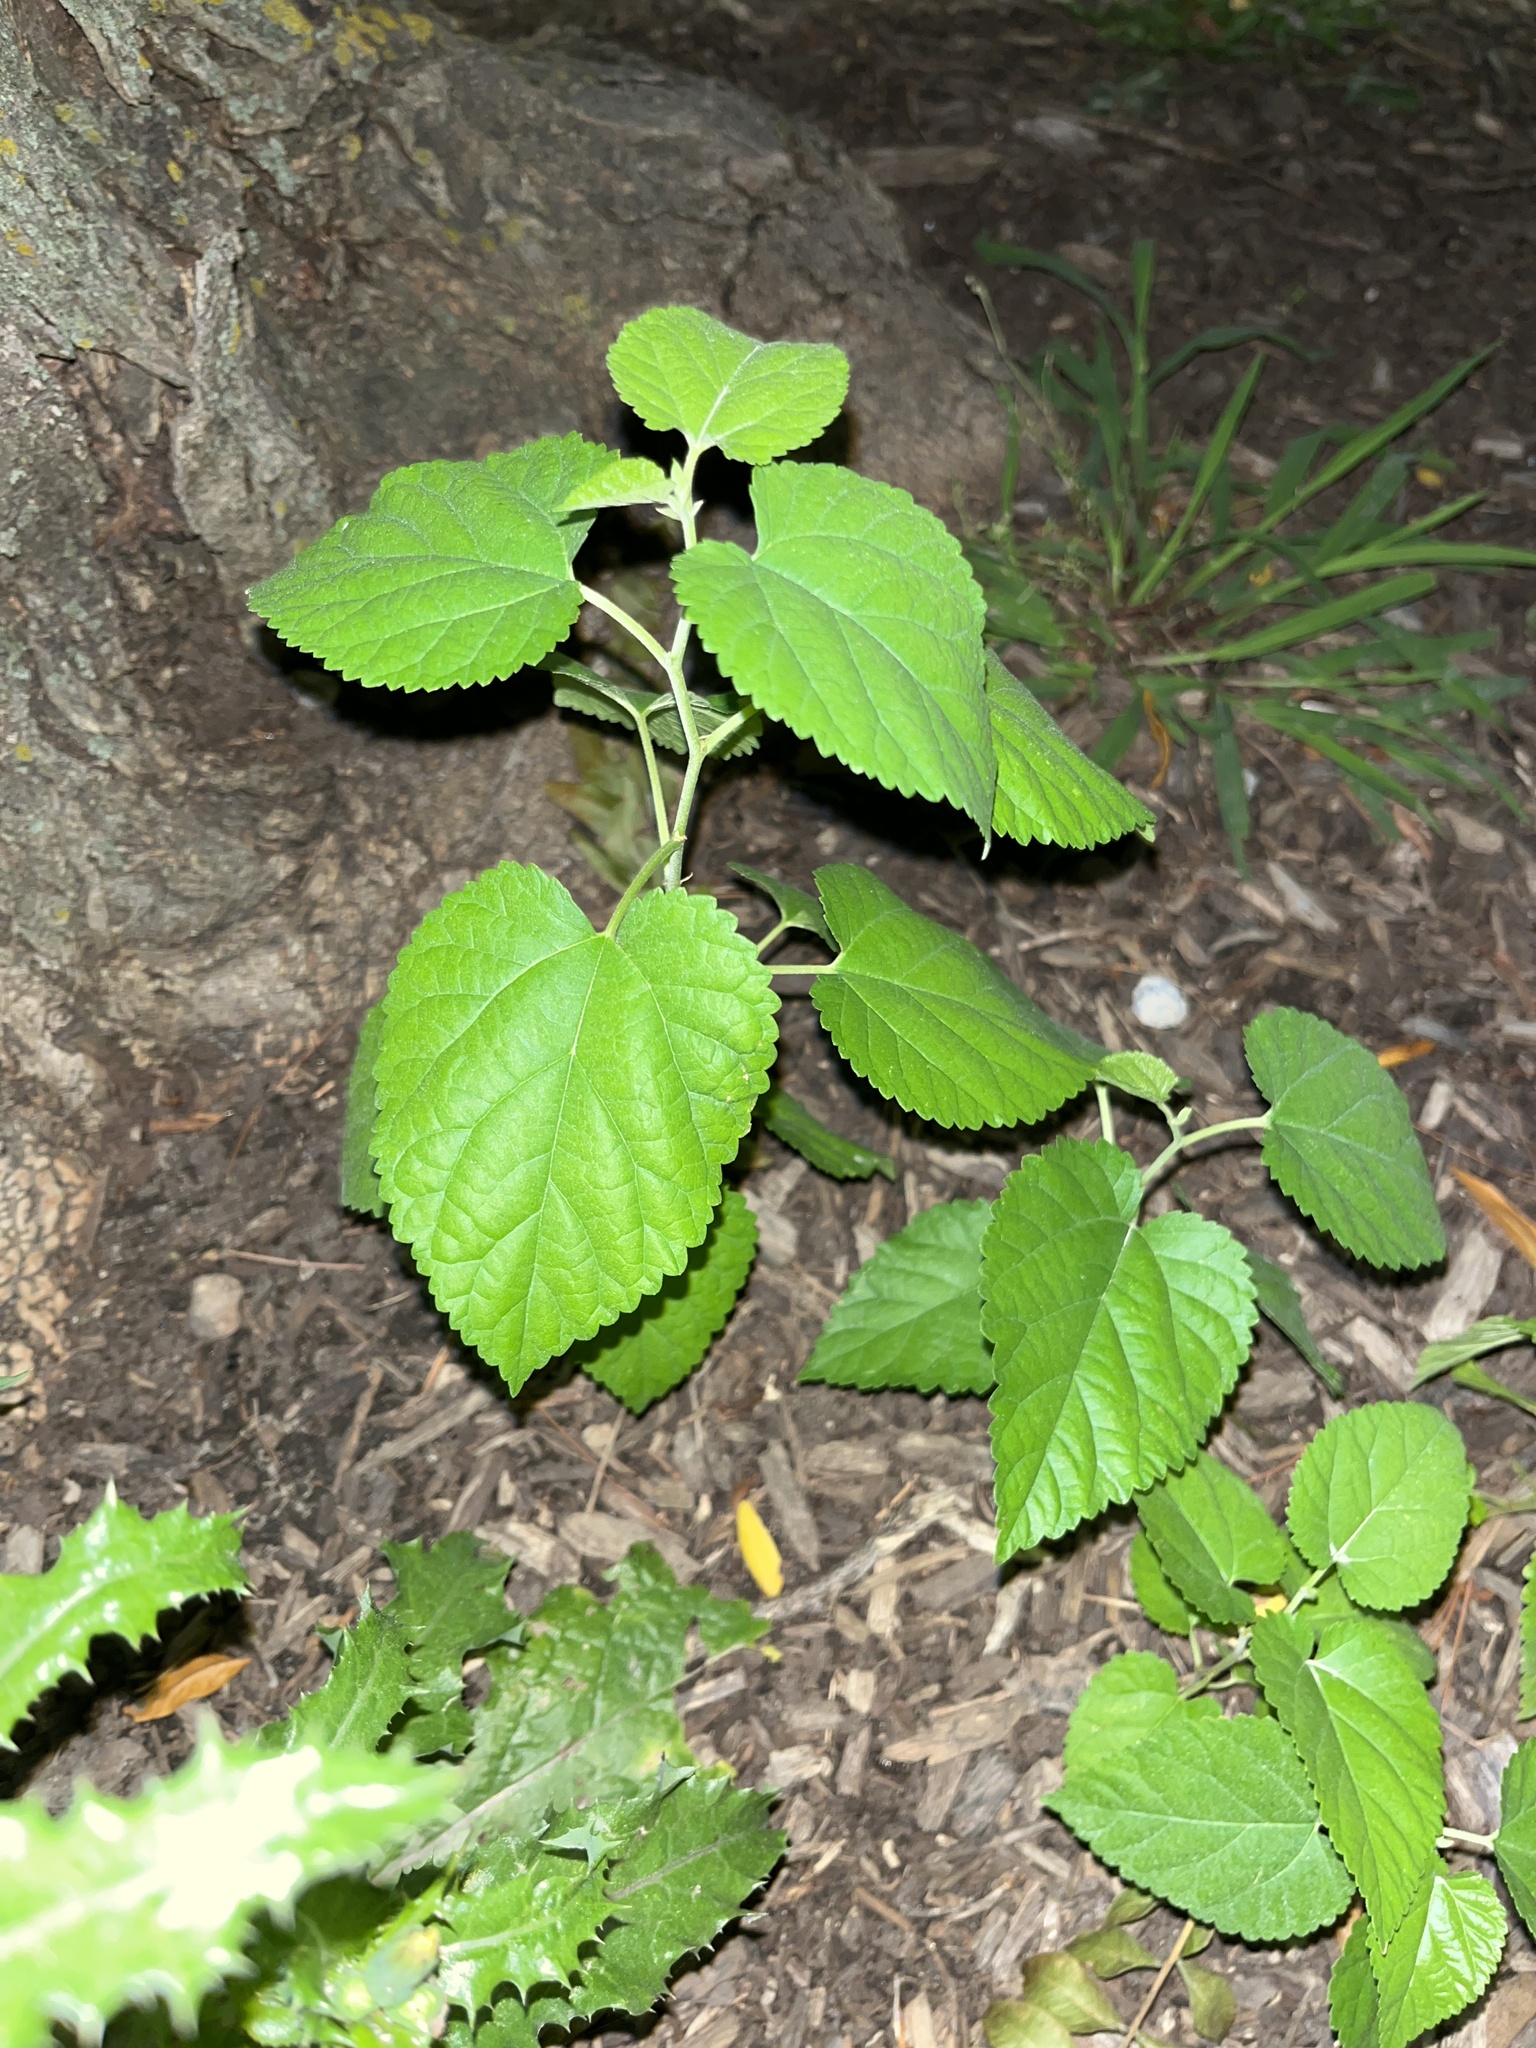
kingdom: Plantae
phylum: Tracheophyta
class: Magnoliopsida
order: Rosales
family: Moraceae
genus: Morus
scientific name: Morus alba
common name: White mulberry
